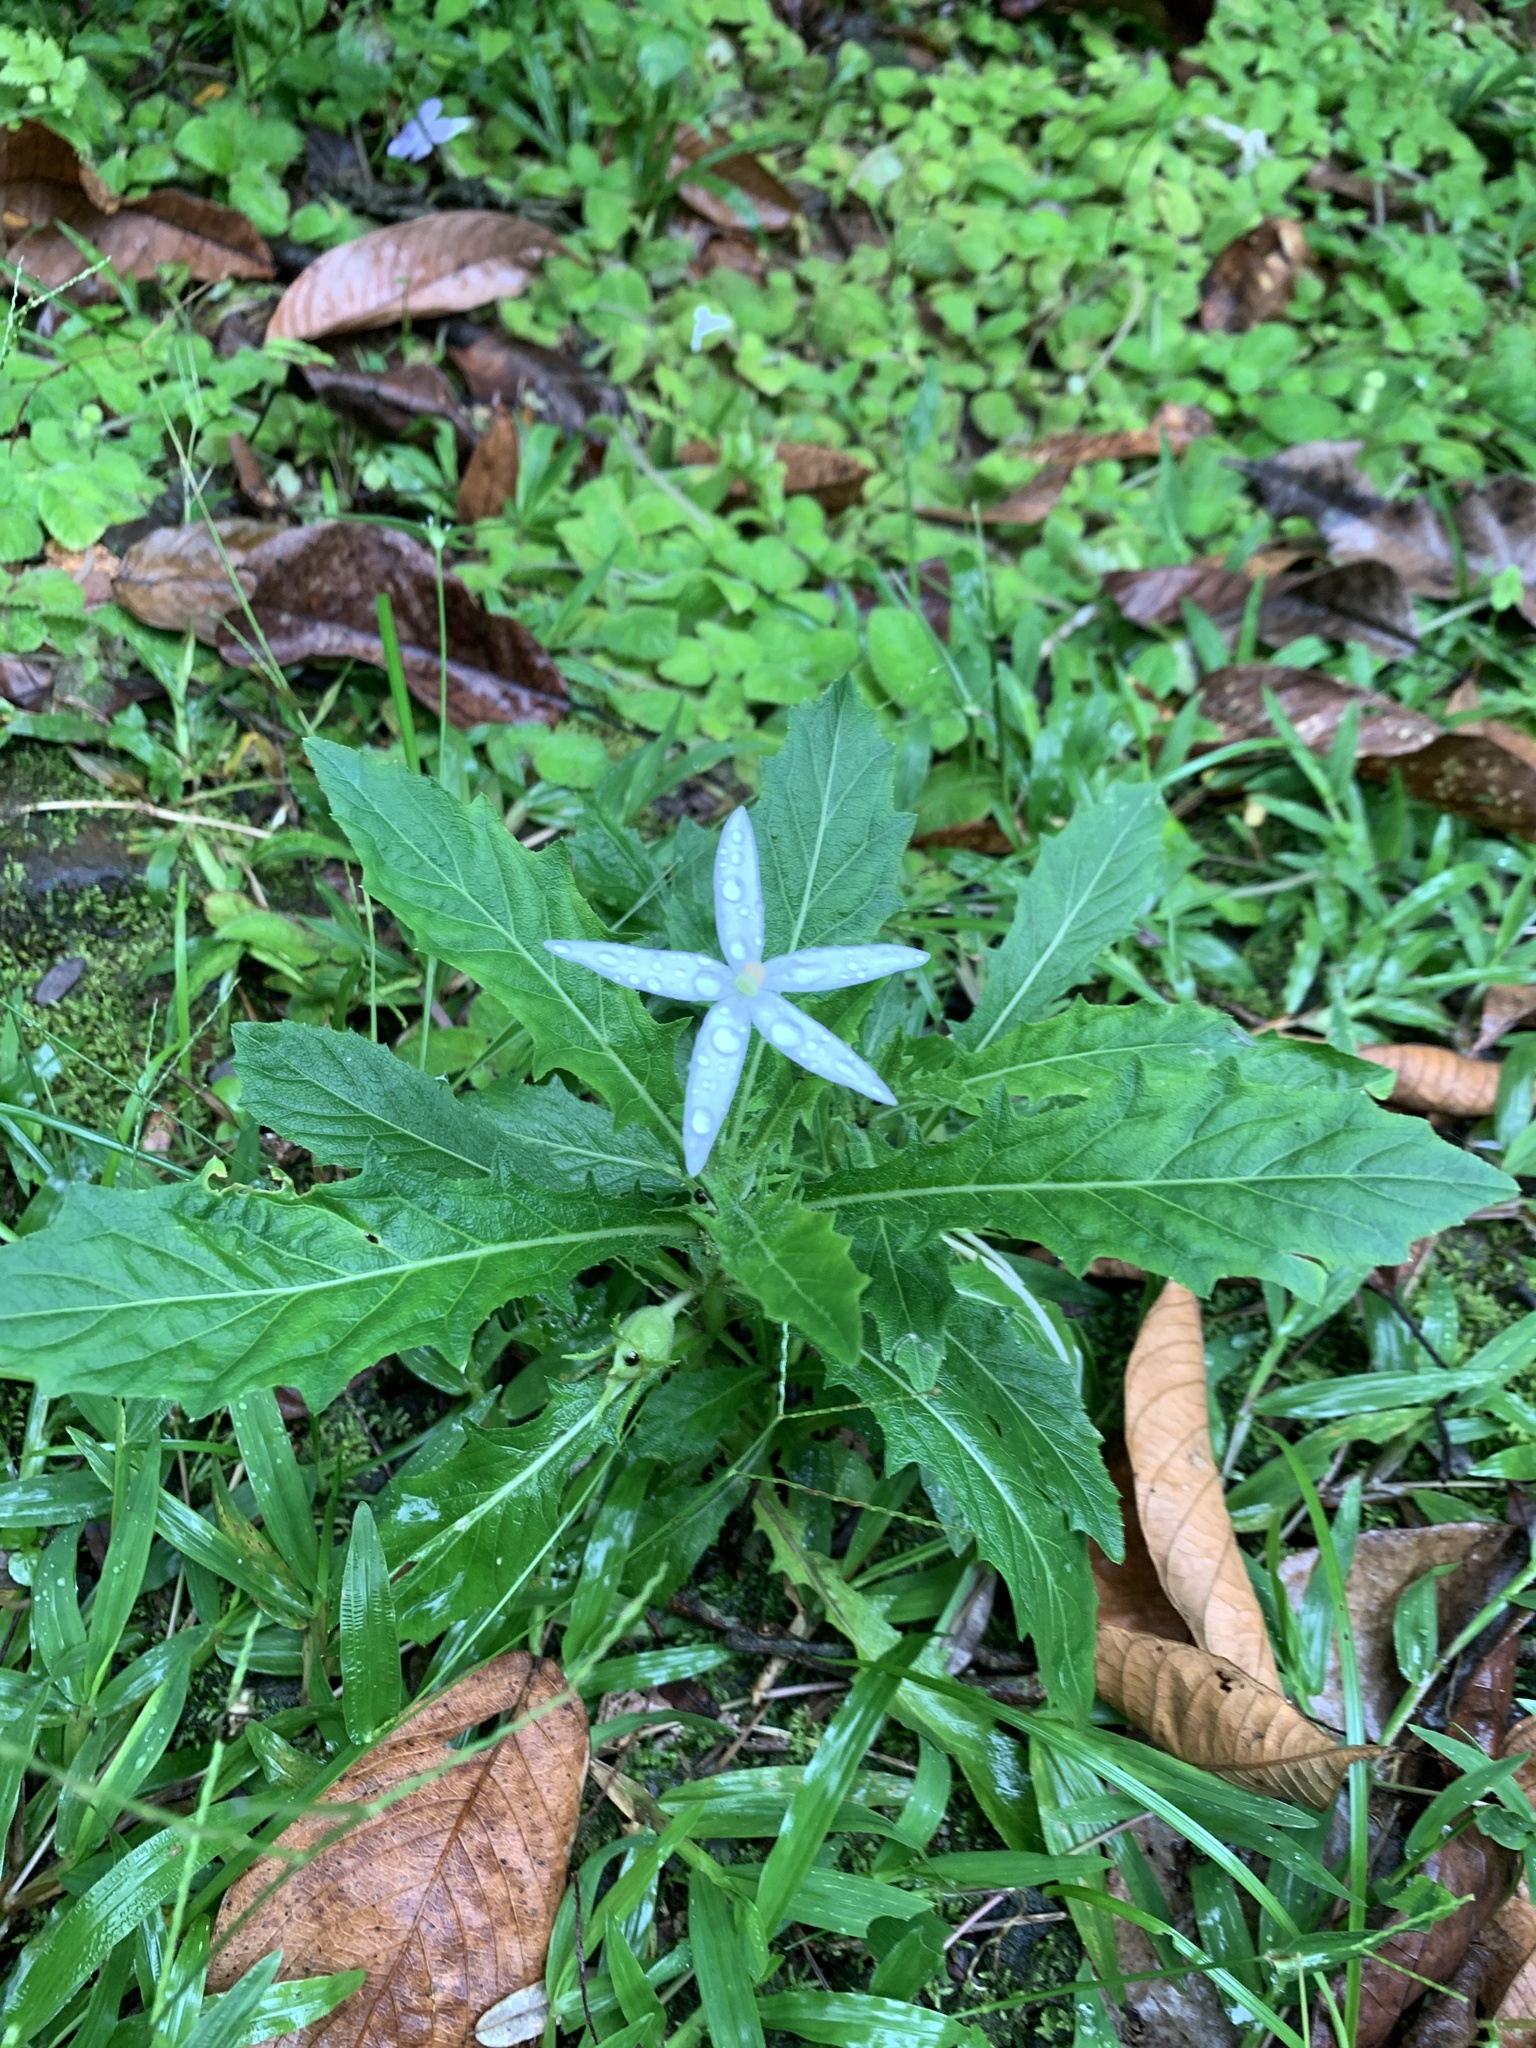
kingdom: Plantae
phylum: Tracheophyta
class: Magnoliopsida
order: Asterales
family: Campanulaceae
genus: Hippobroma
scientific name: Hippobroma longiflora
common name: Madamfate
